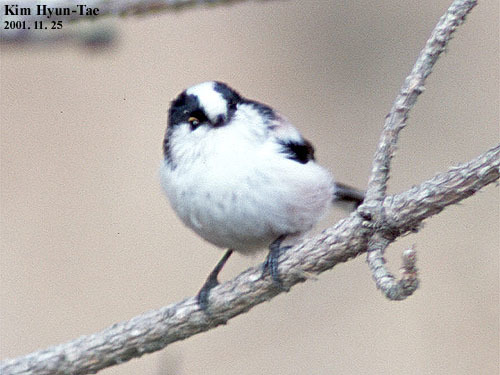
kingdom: Animalia
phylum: Chordata
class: Aves
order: Passeriformes
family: Aegithalidae
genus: Aegithalos
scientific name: Aegithalos caudatus
